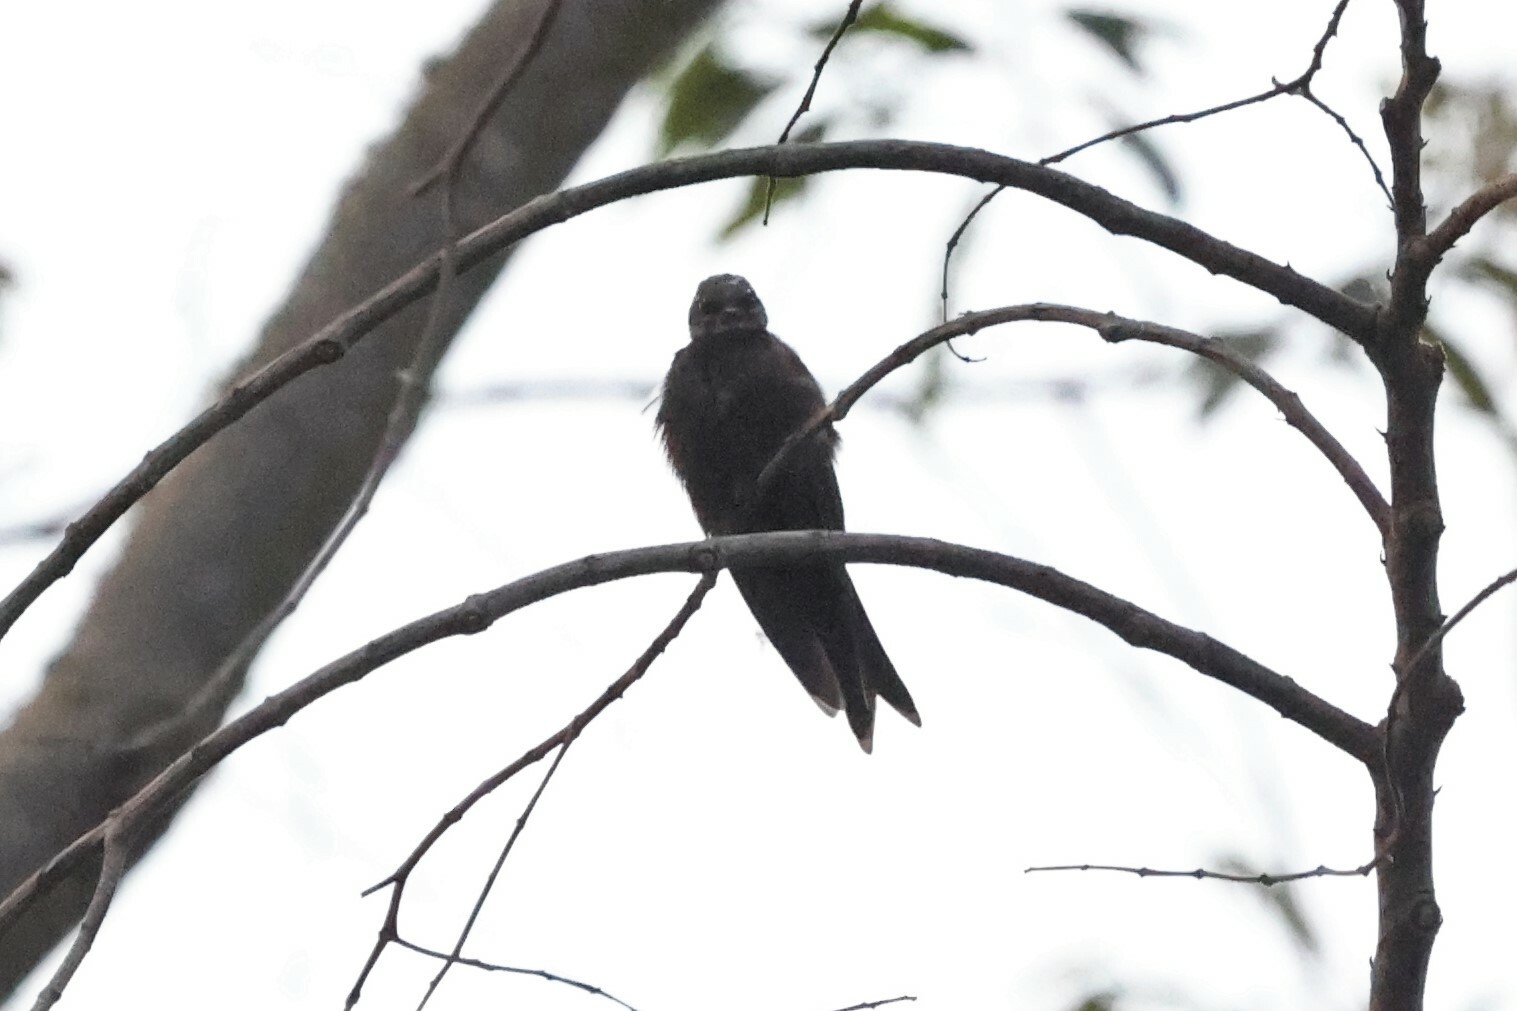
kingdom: Animalia
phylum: Chordata
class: Aves
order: Passeriformes
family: Hirundinidae
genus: Psalidoprocne
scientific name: Psalidoprocne albiceps
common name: White-headed saw-wing
